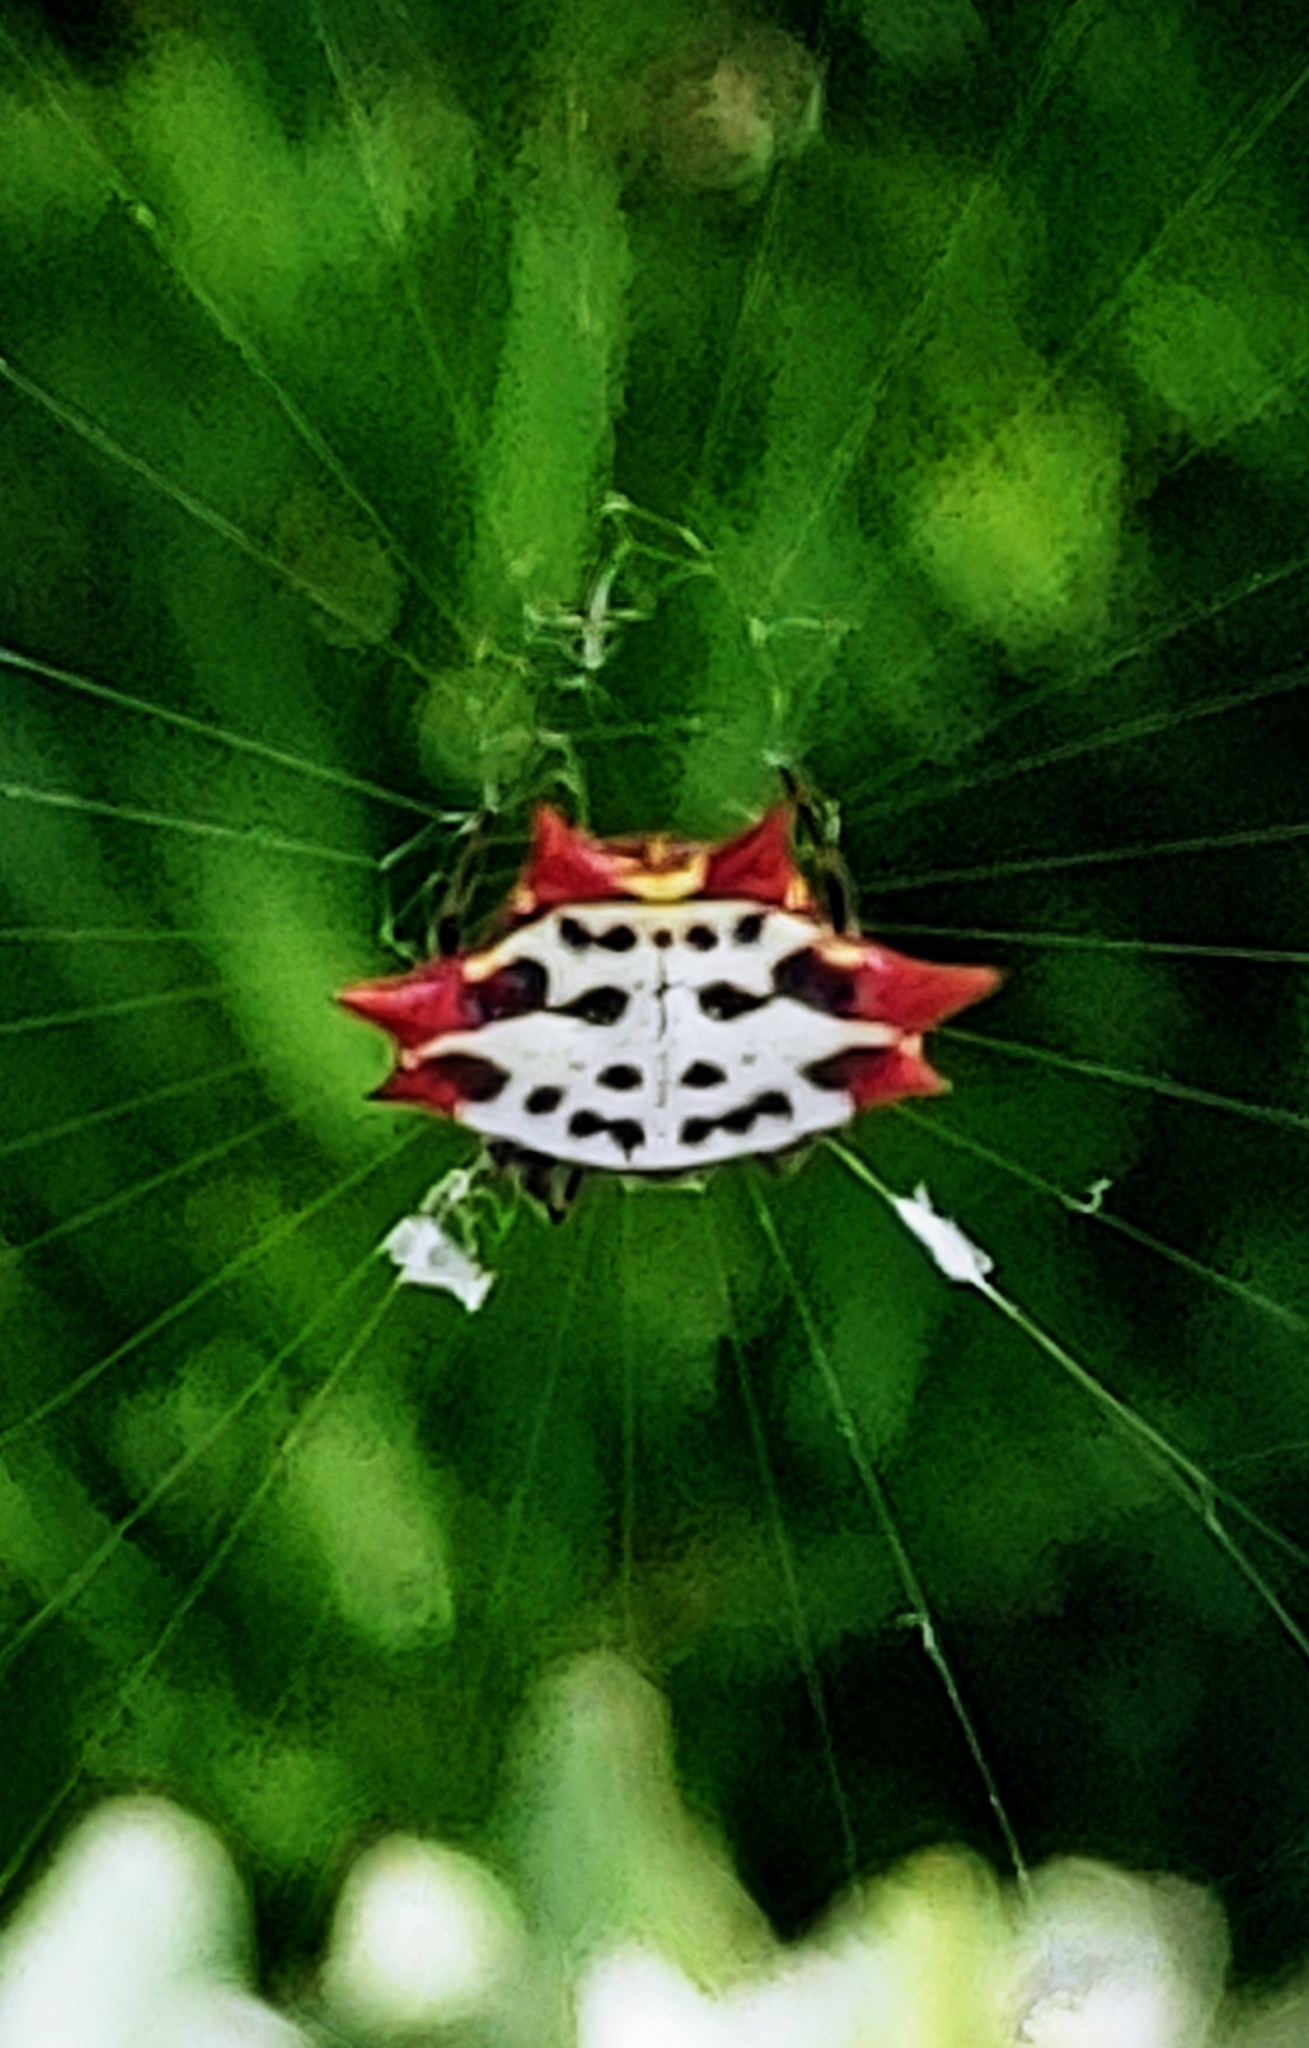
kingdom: Animalia
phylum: Arthropoda
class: Arachnida
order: Araneae
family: Araneidae
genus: Gasteracantha
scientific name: Gasteracantha cancriformis
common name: Orb weavers
